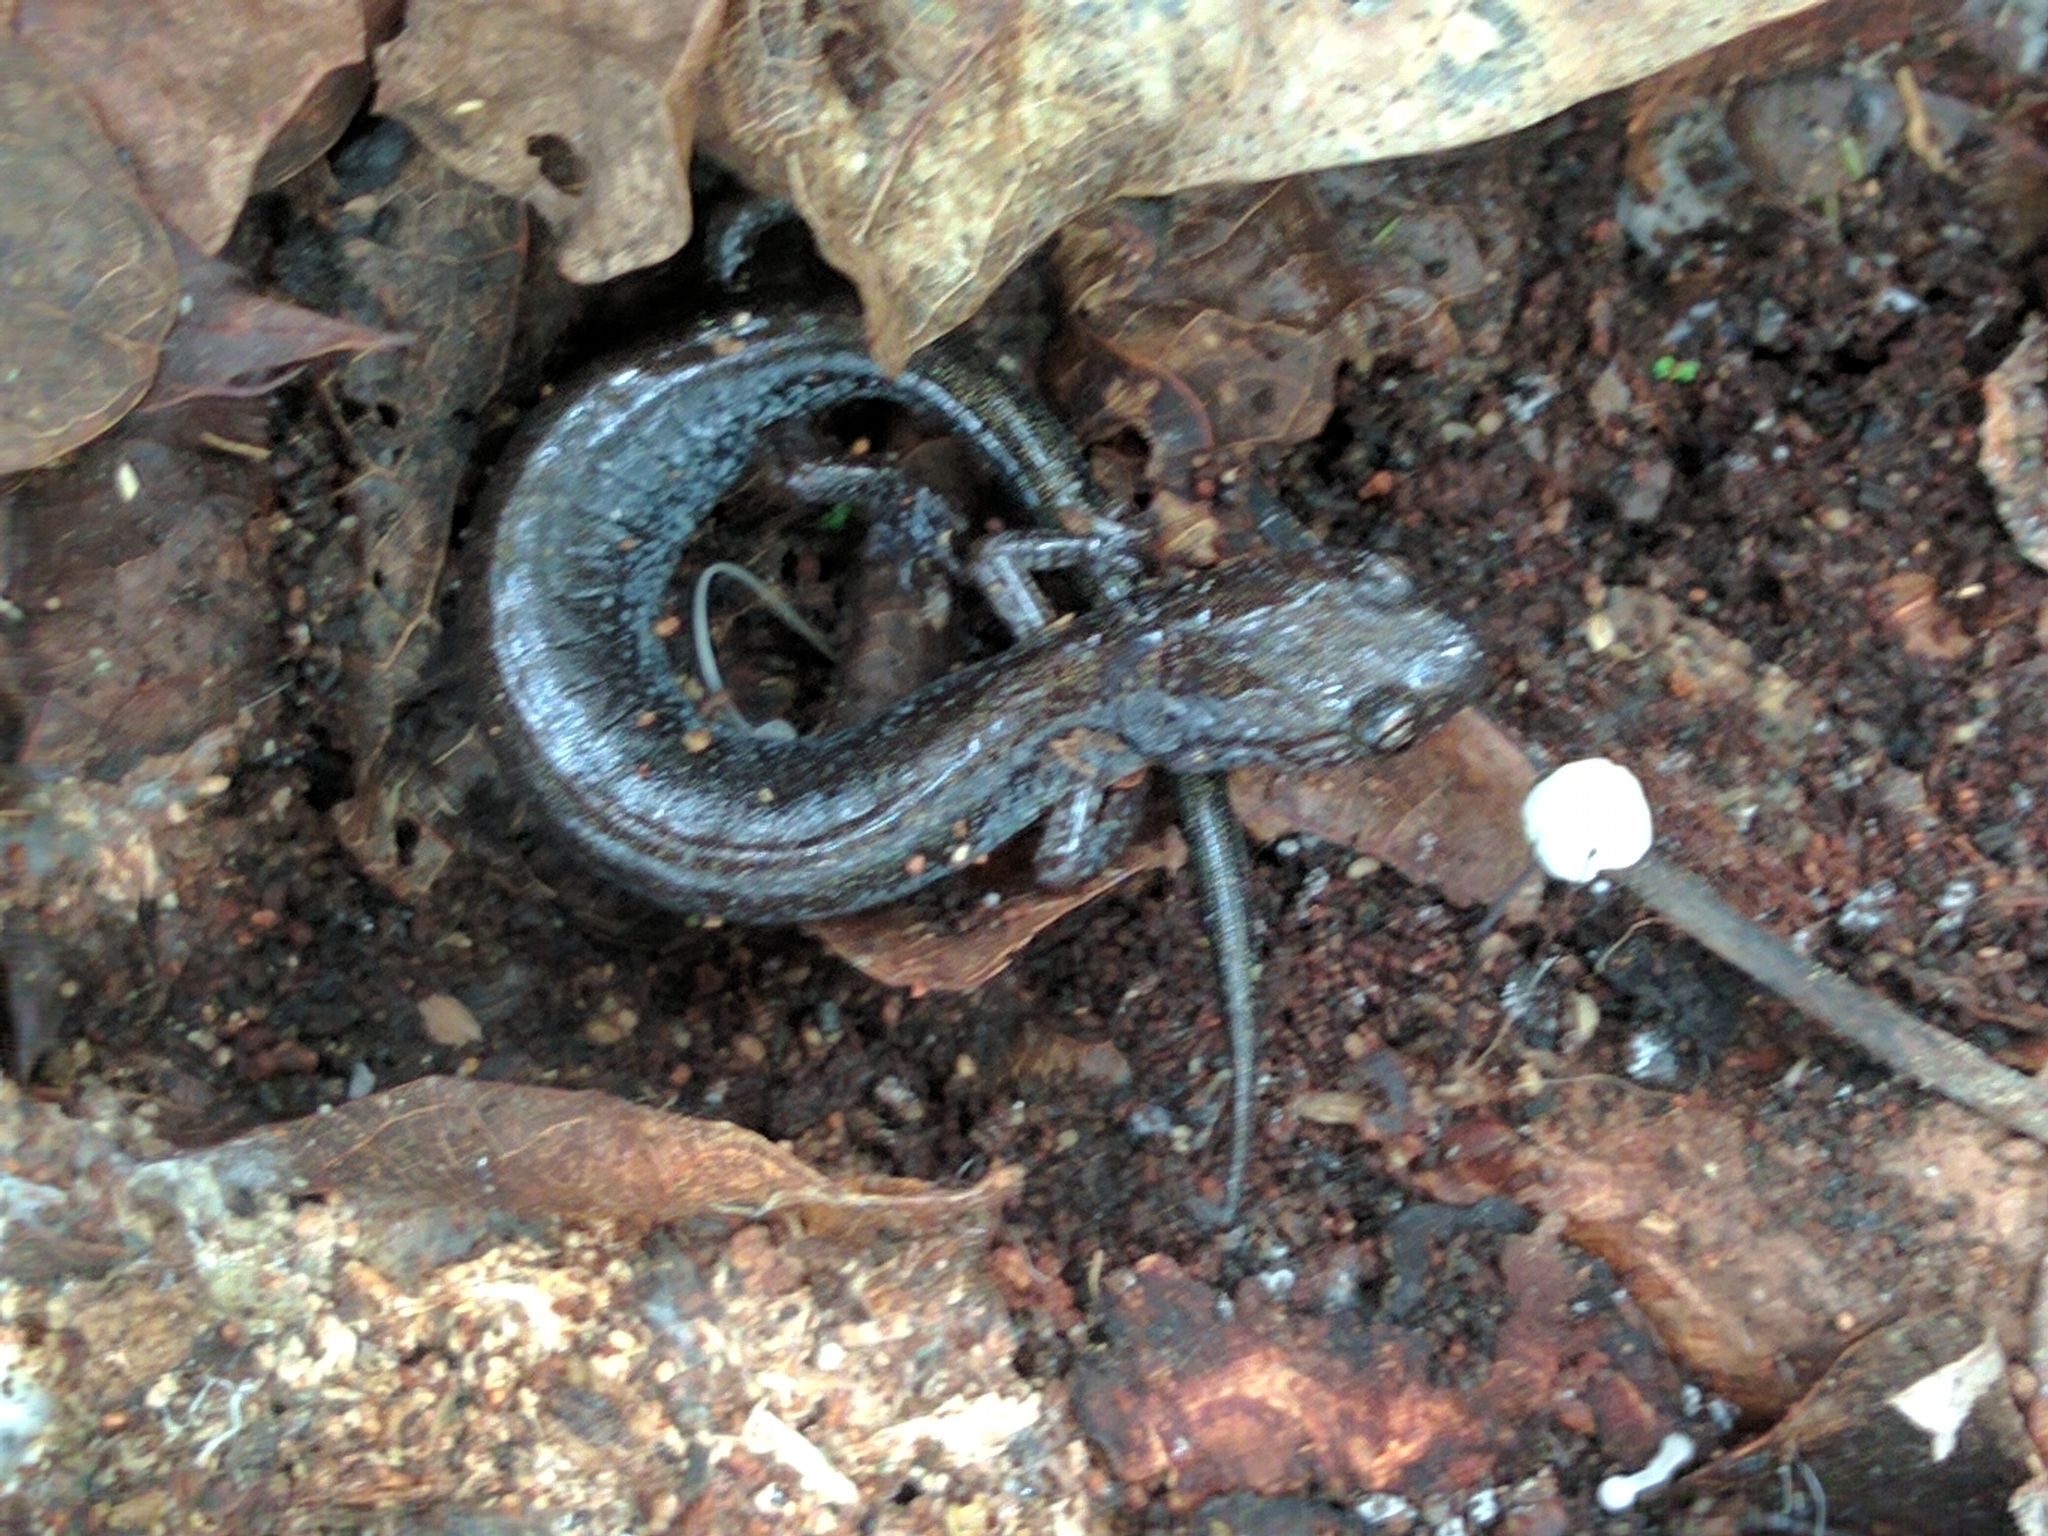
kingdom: Animalia
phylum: Chordata
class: Amphibia
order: Caudata
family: Plethodontidae
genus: Plethodon
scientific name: Plethodon cinereus
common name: Redback salamander
